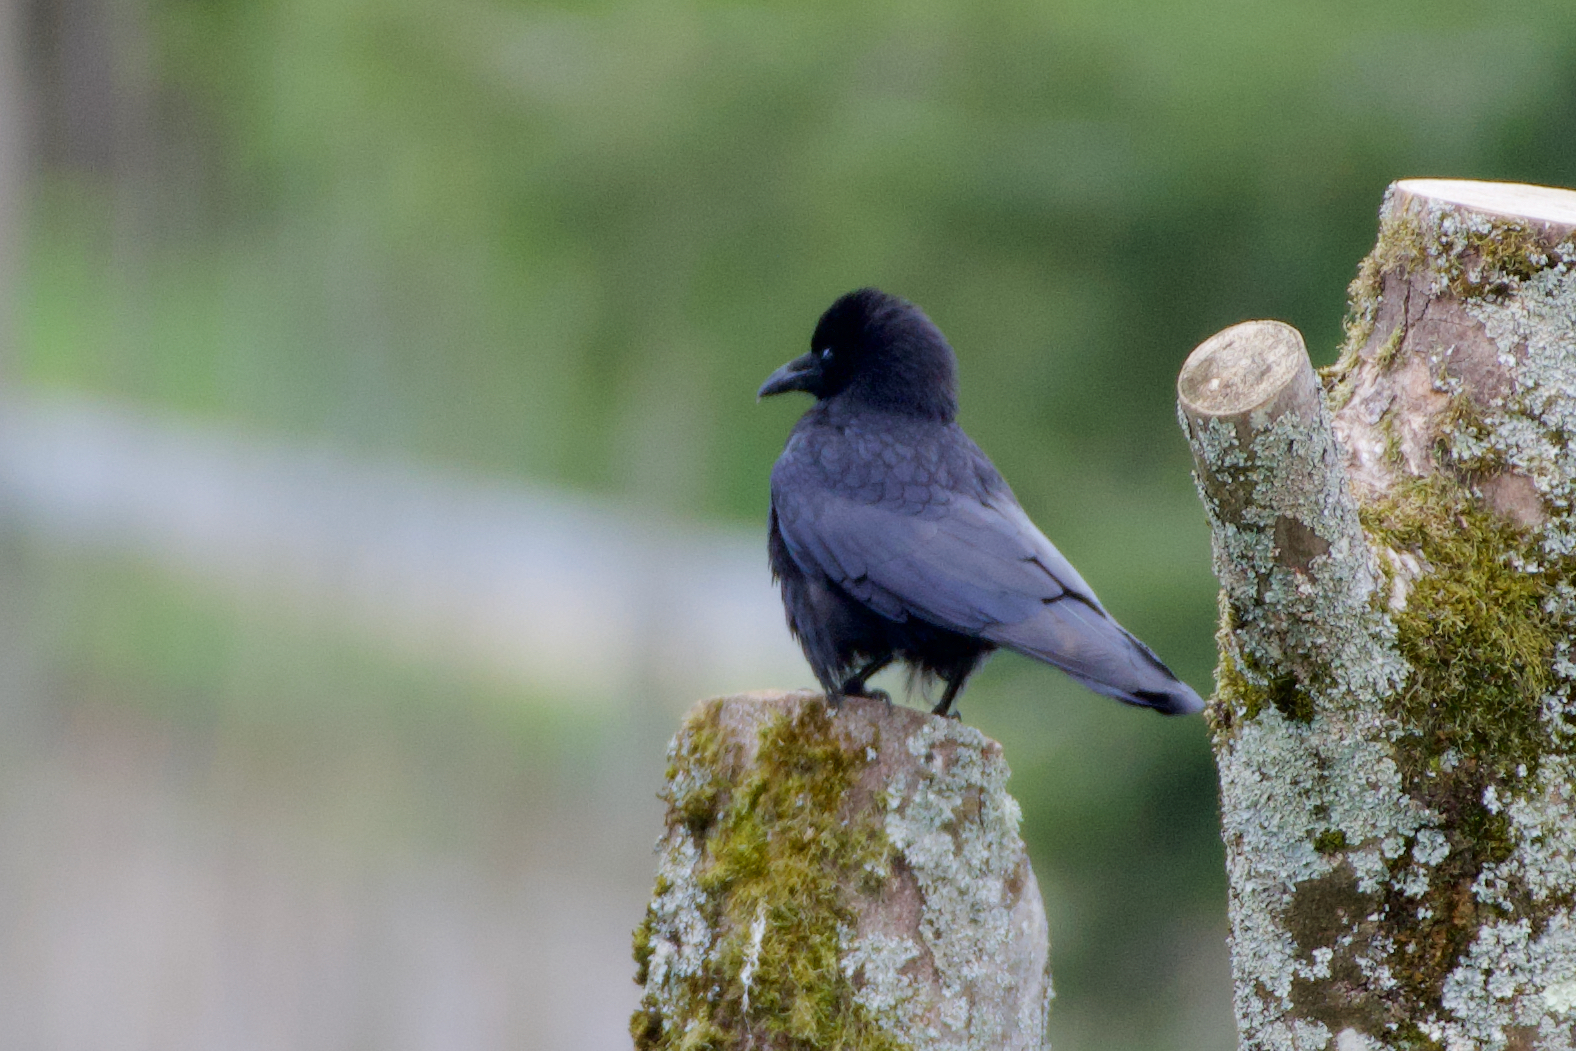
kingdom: Animalia
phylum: Chordata
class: Aves
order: Passeriformes
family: Corvidae
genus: Corvus
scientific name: Corvus corone
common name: Carrion crow
